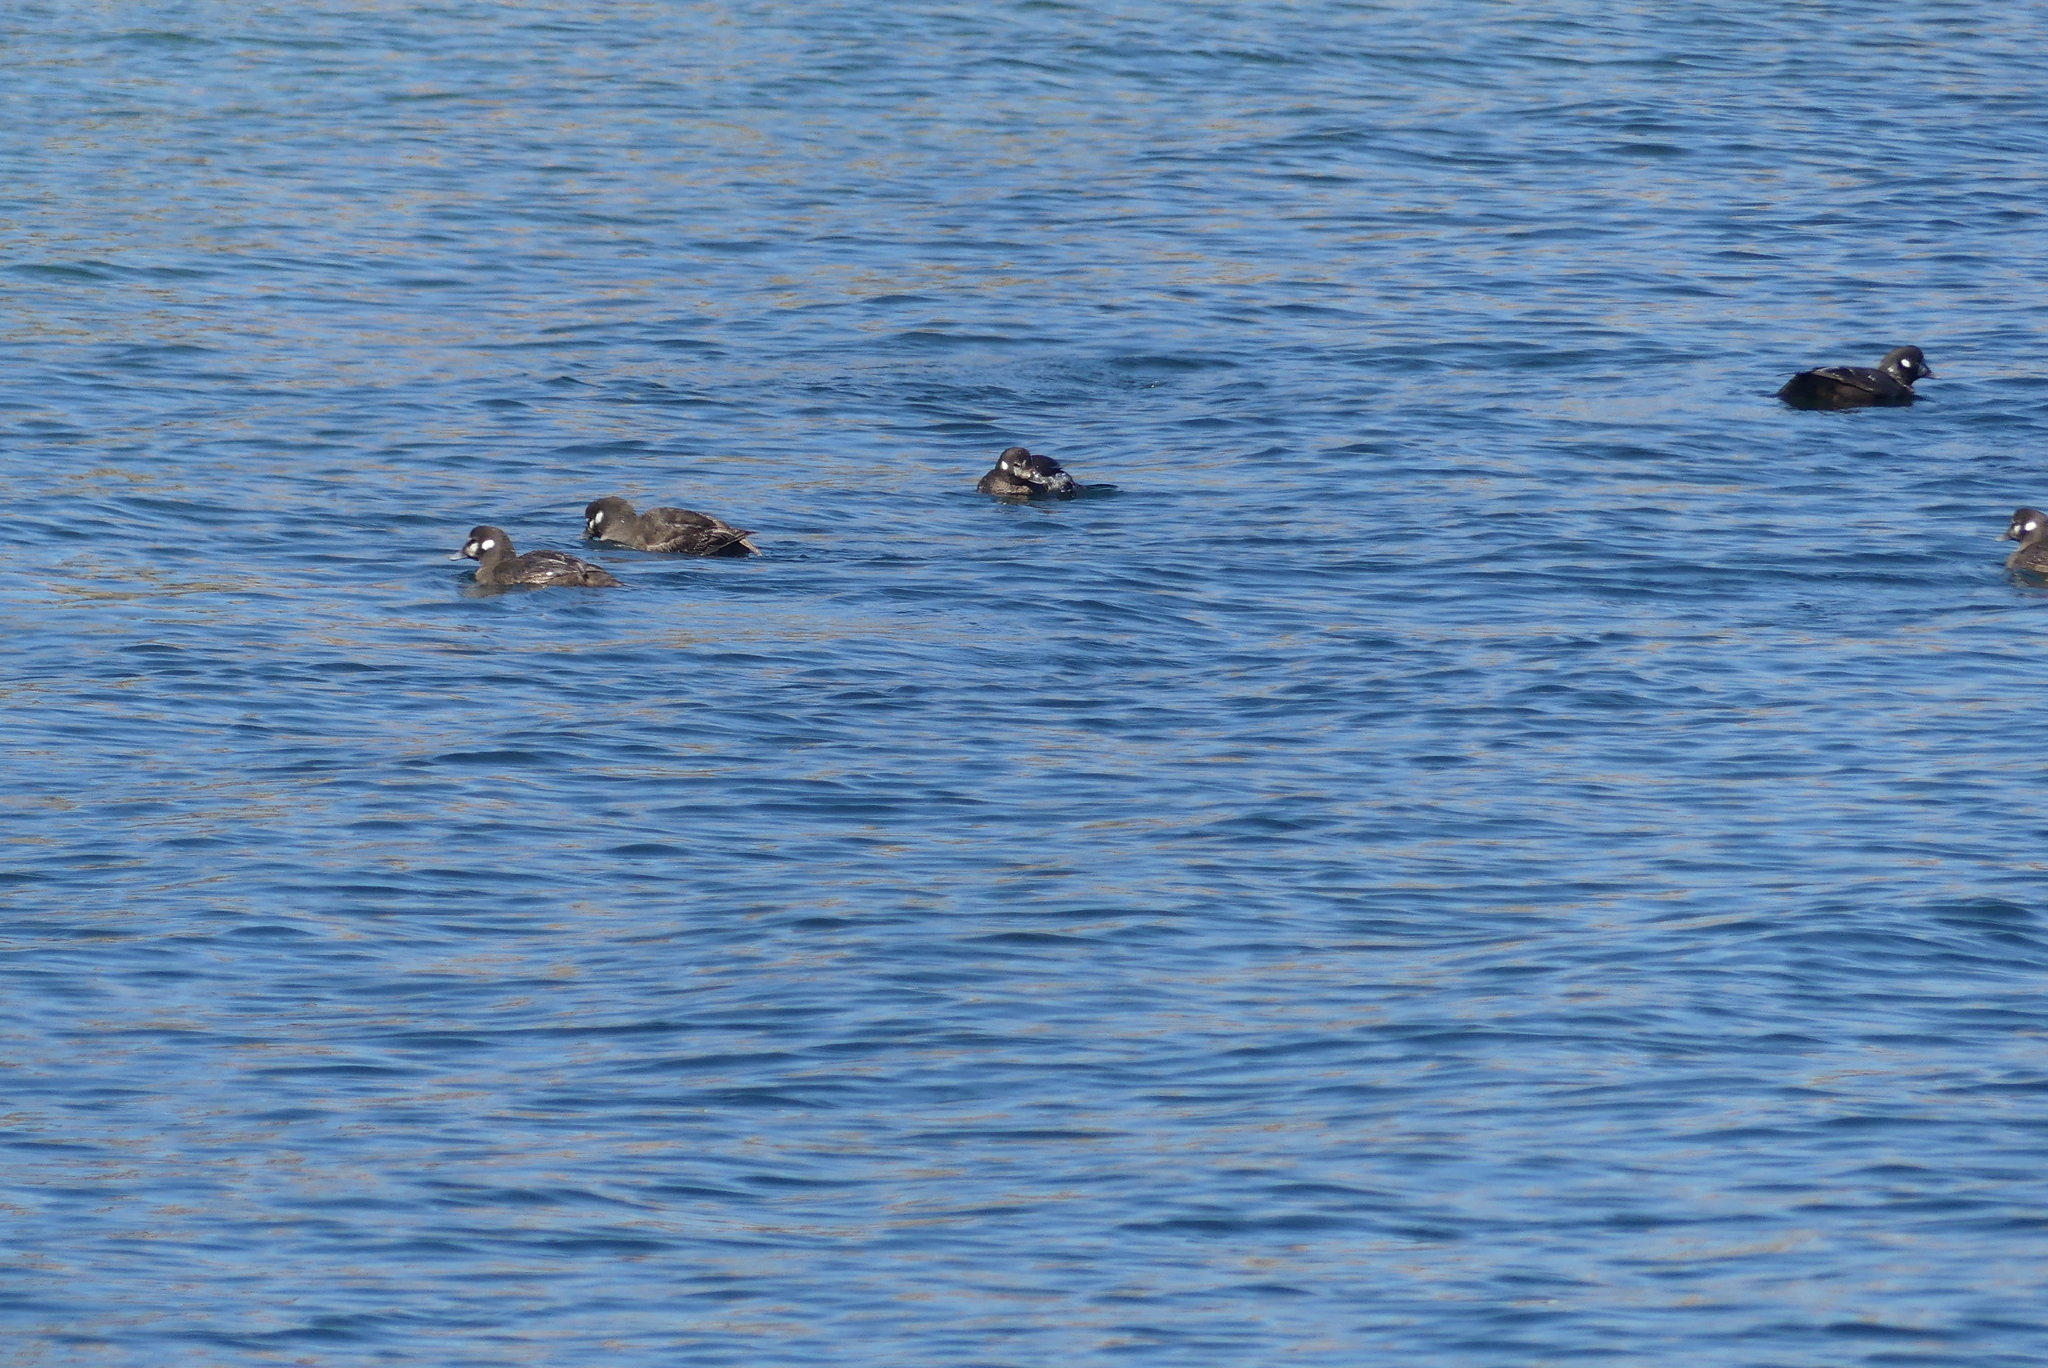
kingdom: Animalia
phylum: Chordata
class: Aves
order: Anseriformes
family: Anatidae
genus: Histrionicus
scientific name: Histrionicus histrionicus
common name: Harlequin duck
